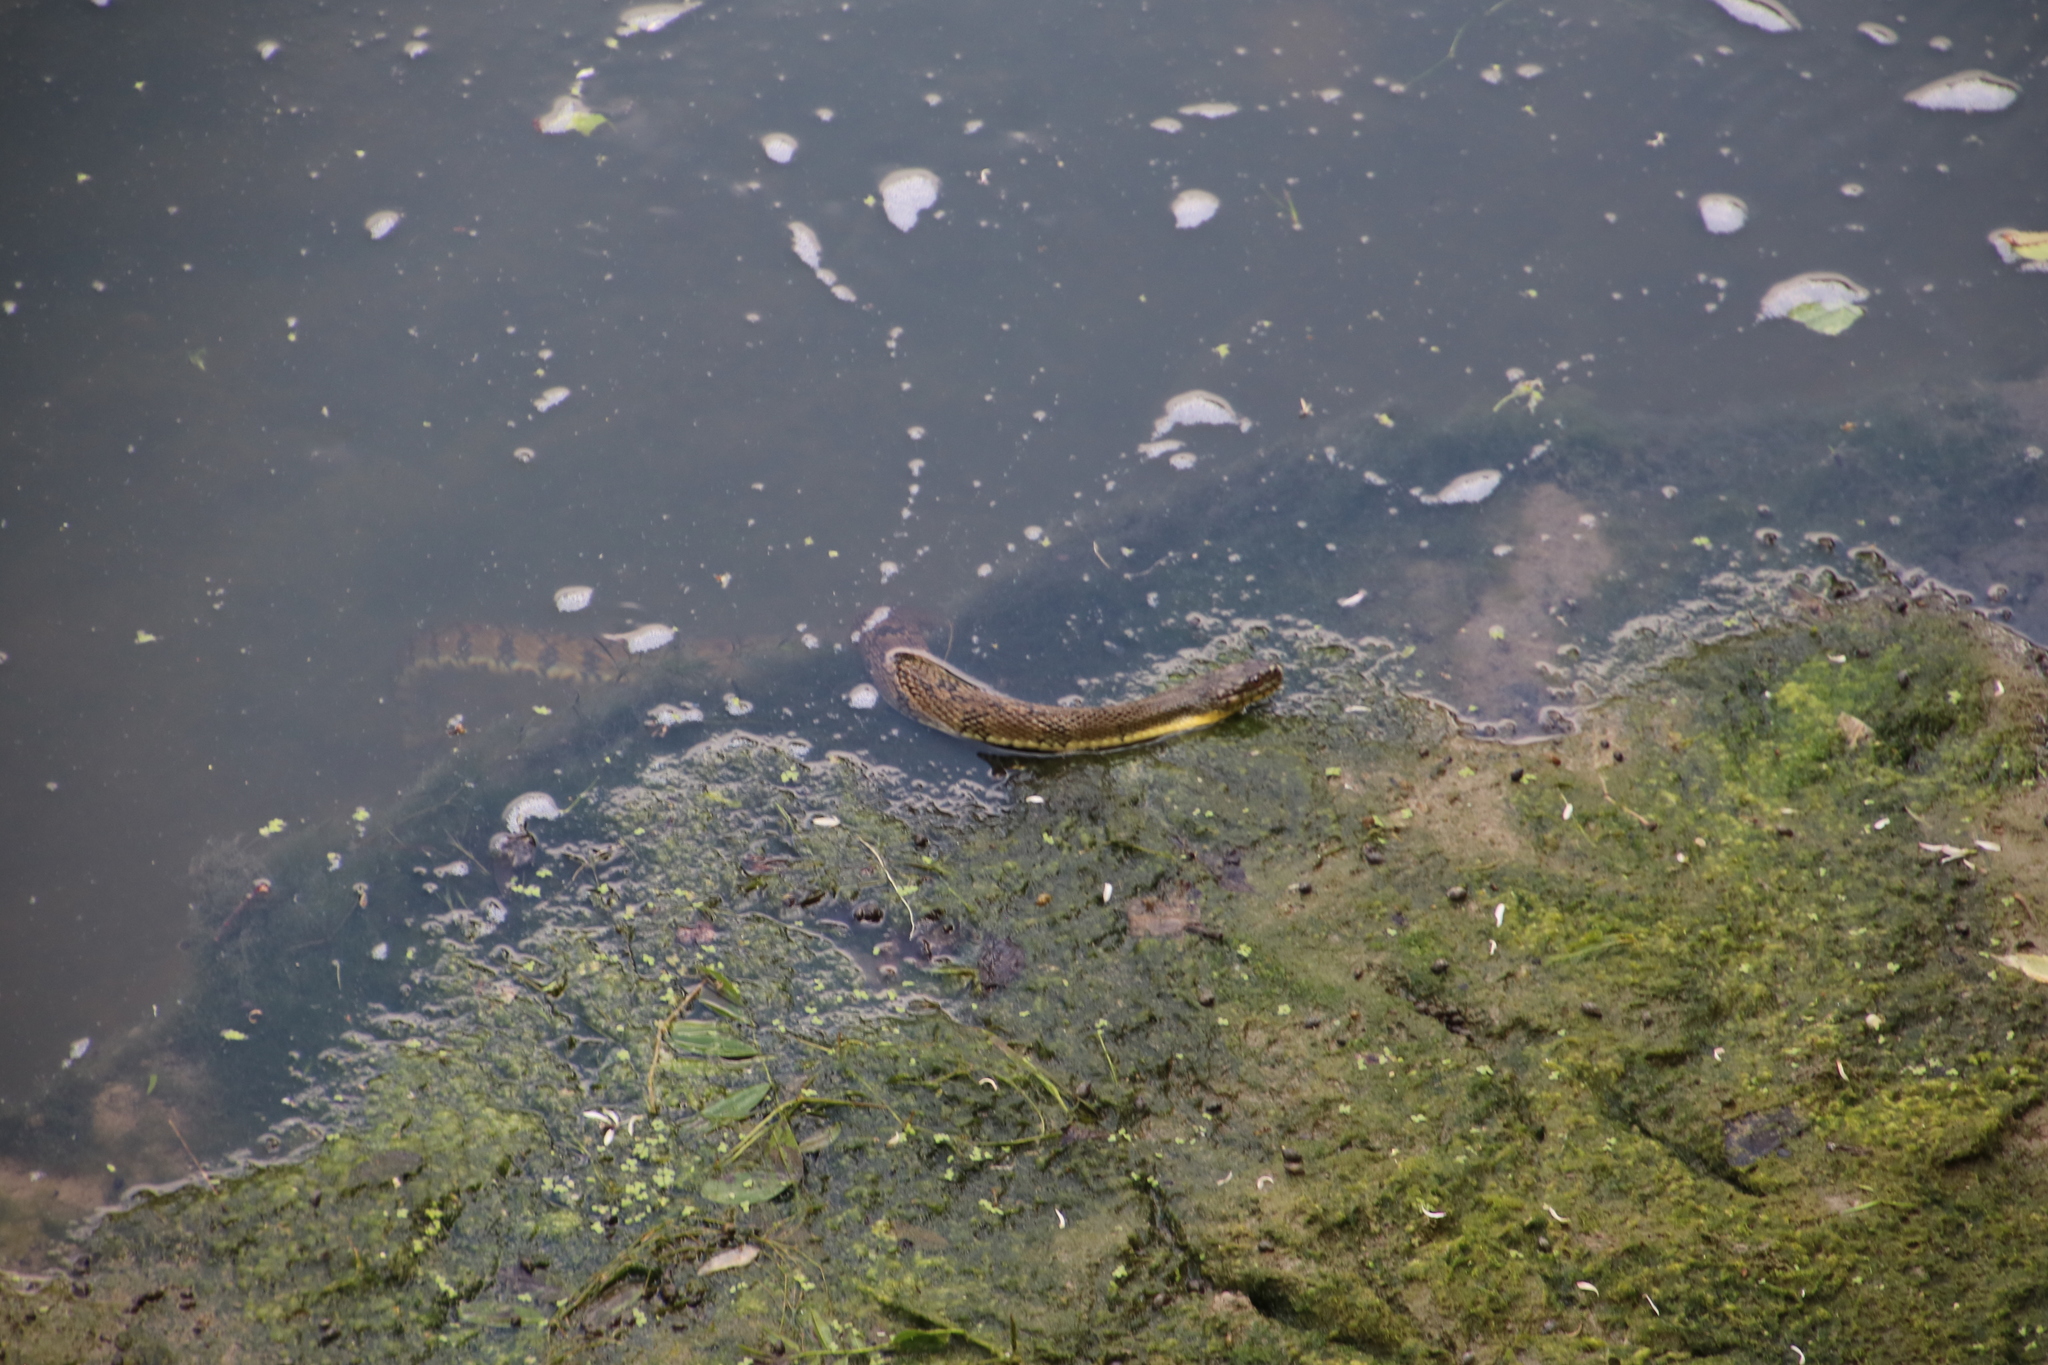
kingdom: Animalia
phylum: Chordata
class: Squamata
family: Colubridae
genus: Nerodia
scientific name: Nerodia rhombifer
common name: Diamondback water snake
